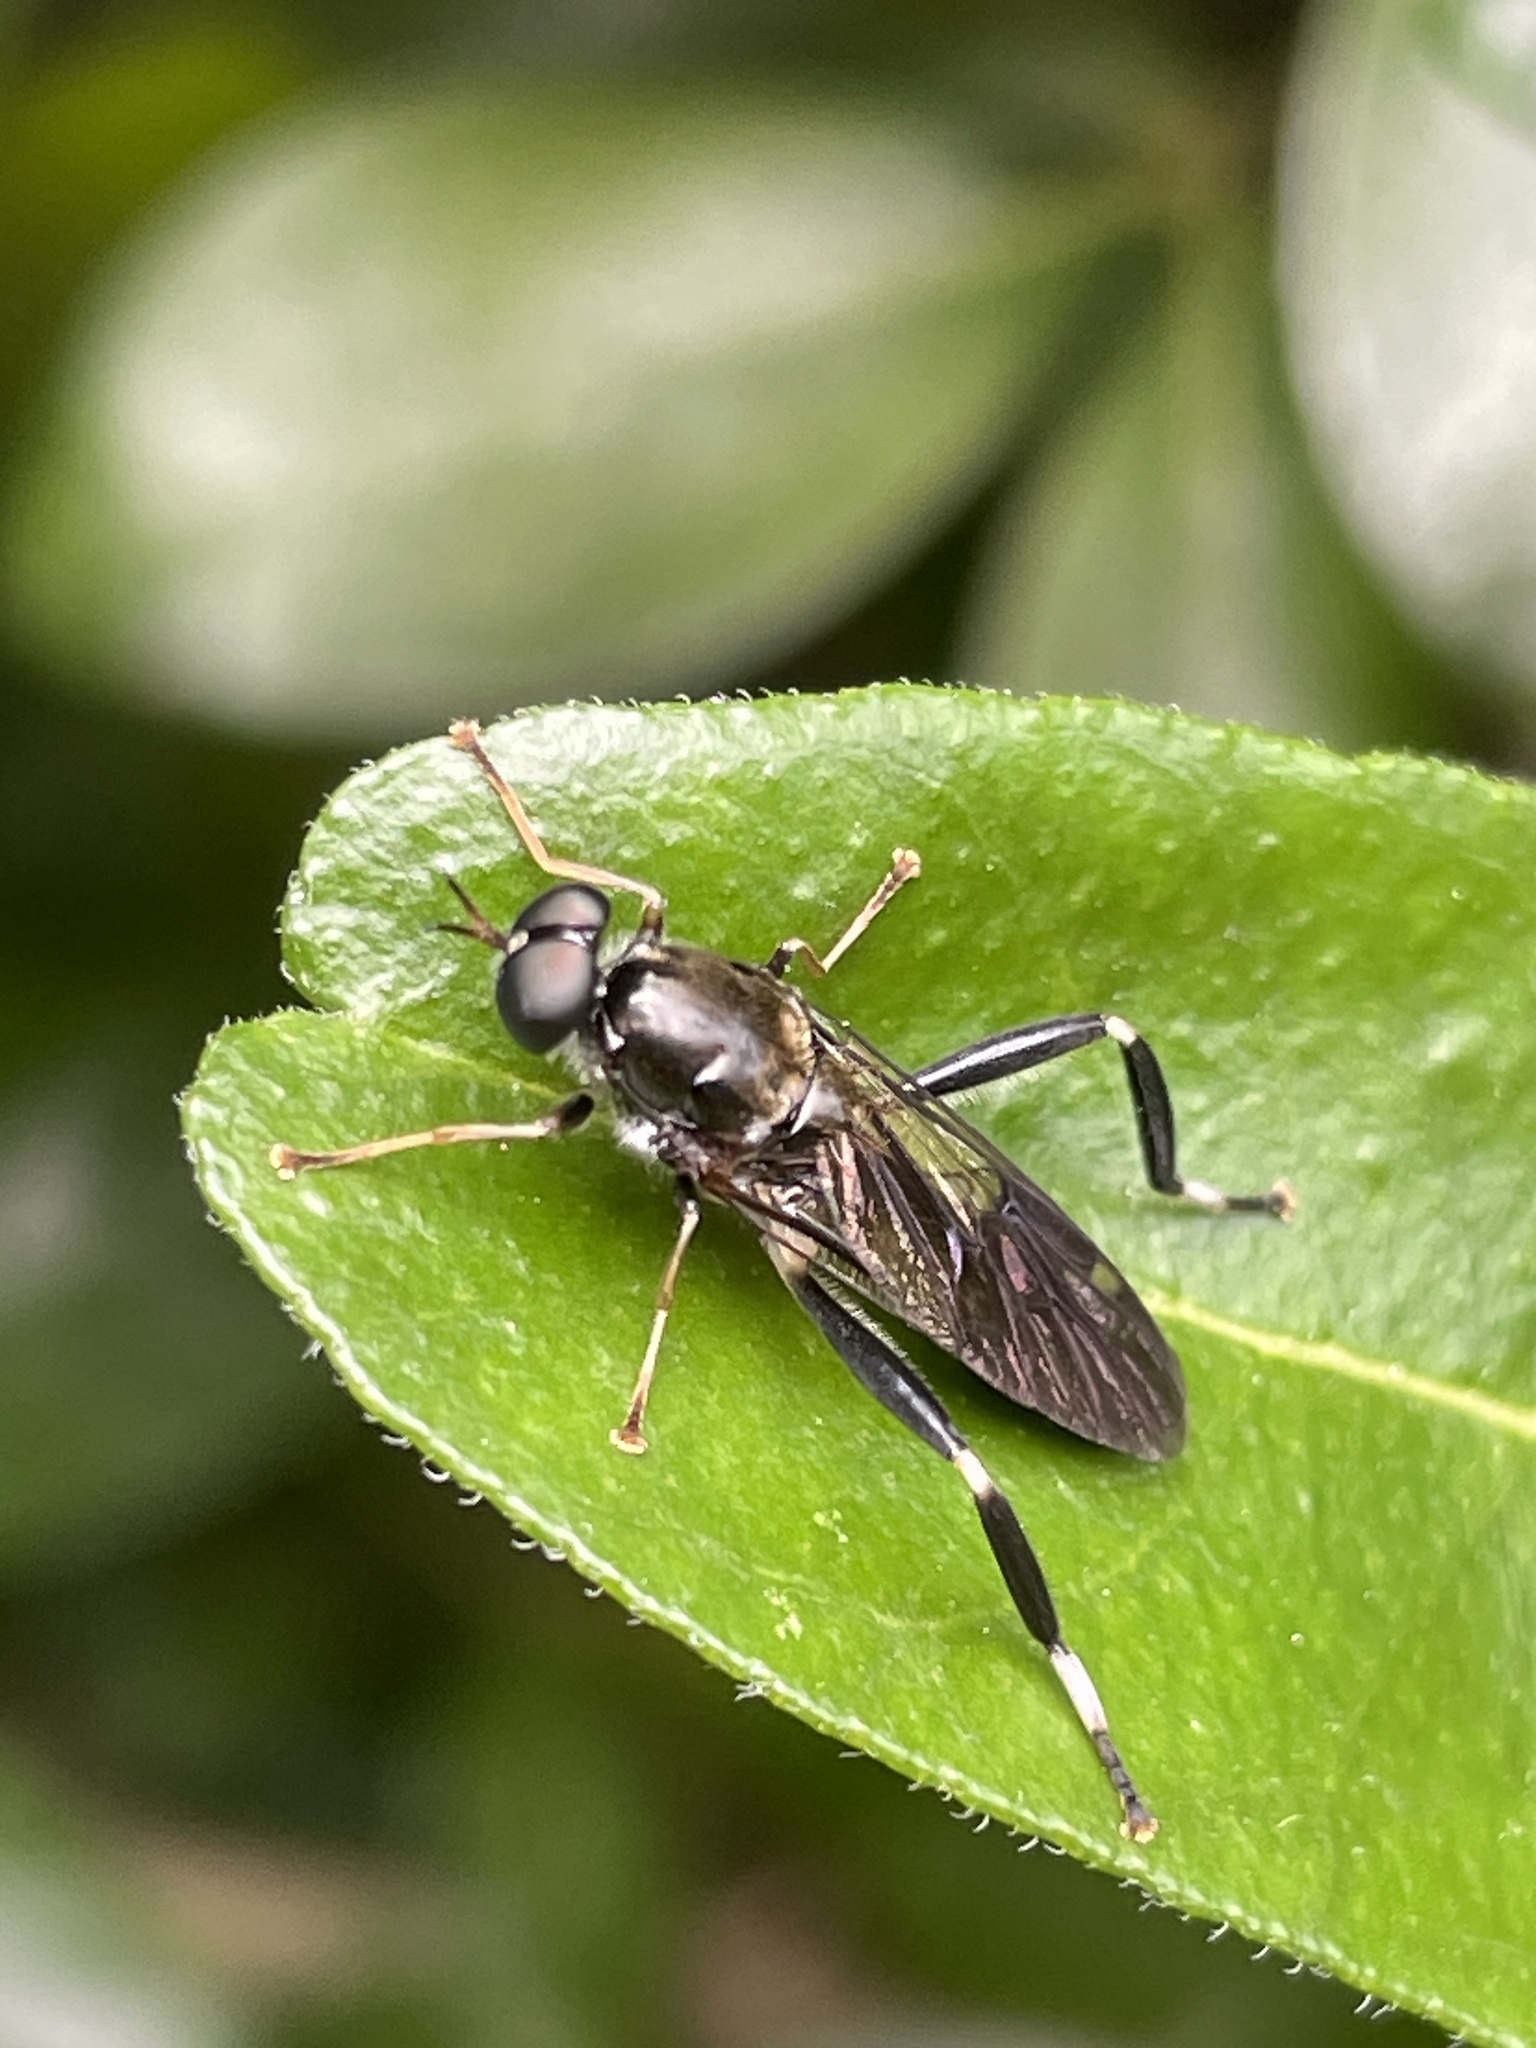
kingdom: Animalia
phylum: Arthropoda
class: Insecta
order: Diptera
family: Stratiomyidae
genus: Exaireta
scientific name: Exaireta spinigera
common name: Blue soldier fly
